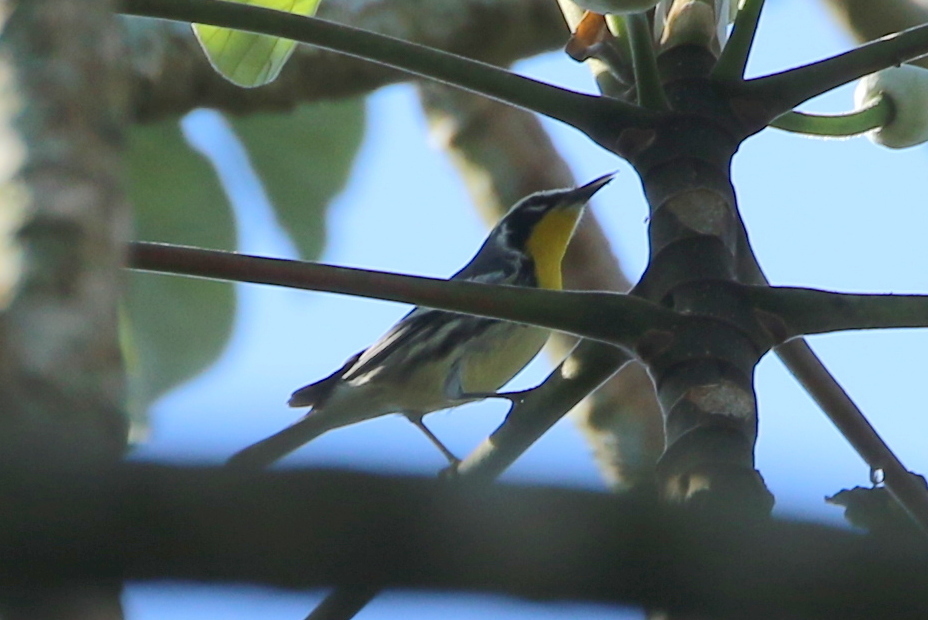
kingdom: Animalia
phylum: Chordata
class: Aves
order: Passeriformes
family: Parulidae
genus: Setophaga
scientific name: Setophaga dominica
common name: Yellow-throated warbler
